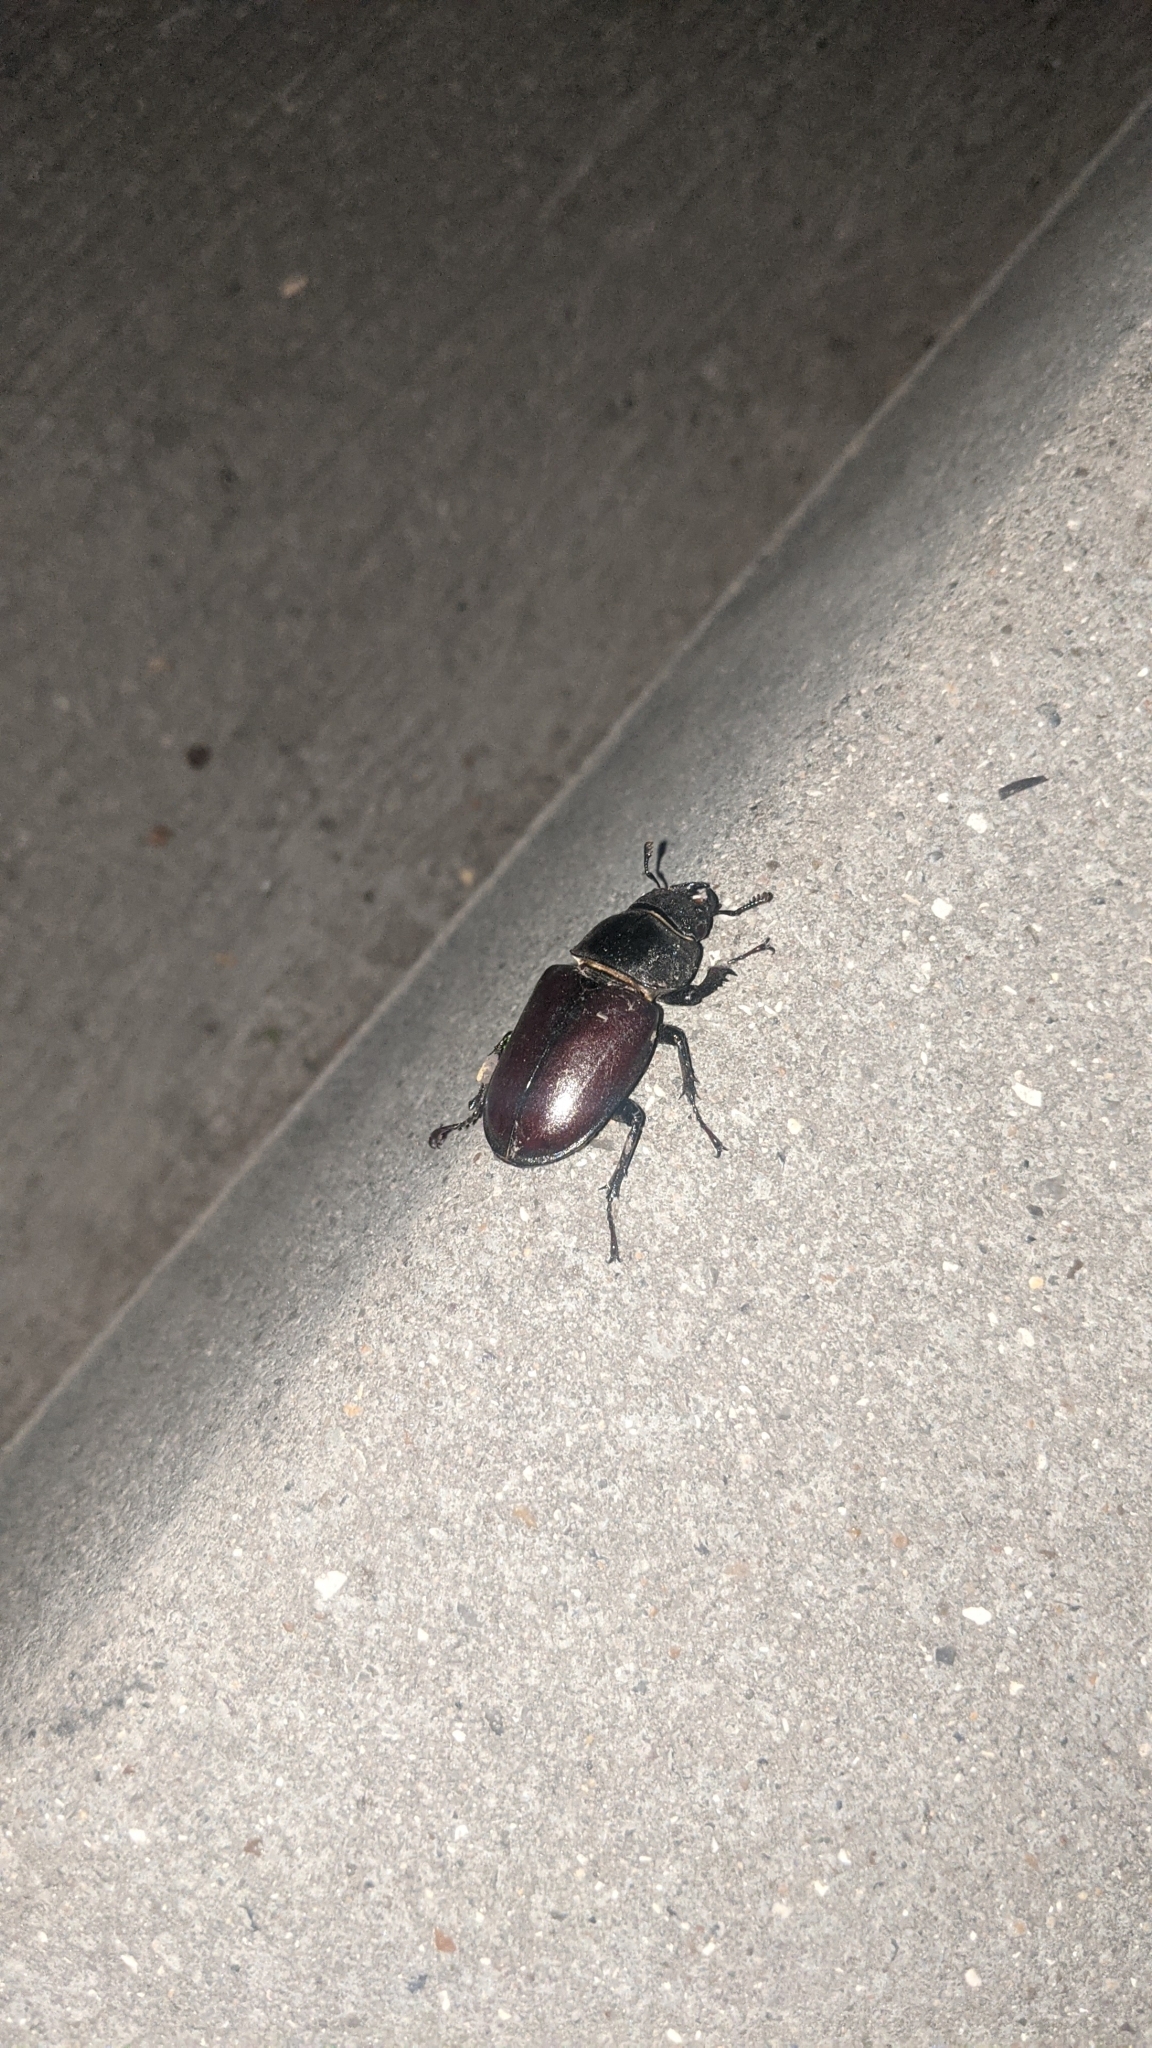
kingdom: Animalia
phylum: Arthropoda
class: Insecta
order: Coleoptera
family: Lucanidae
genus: Lucanus
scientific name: Lucanus cervus
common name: Stag beetle
